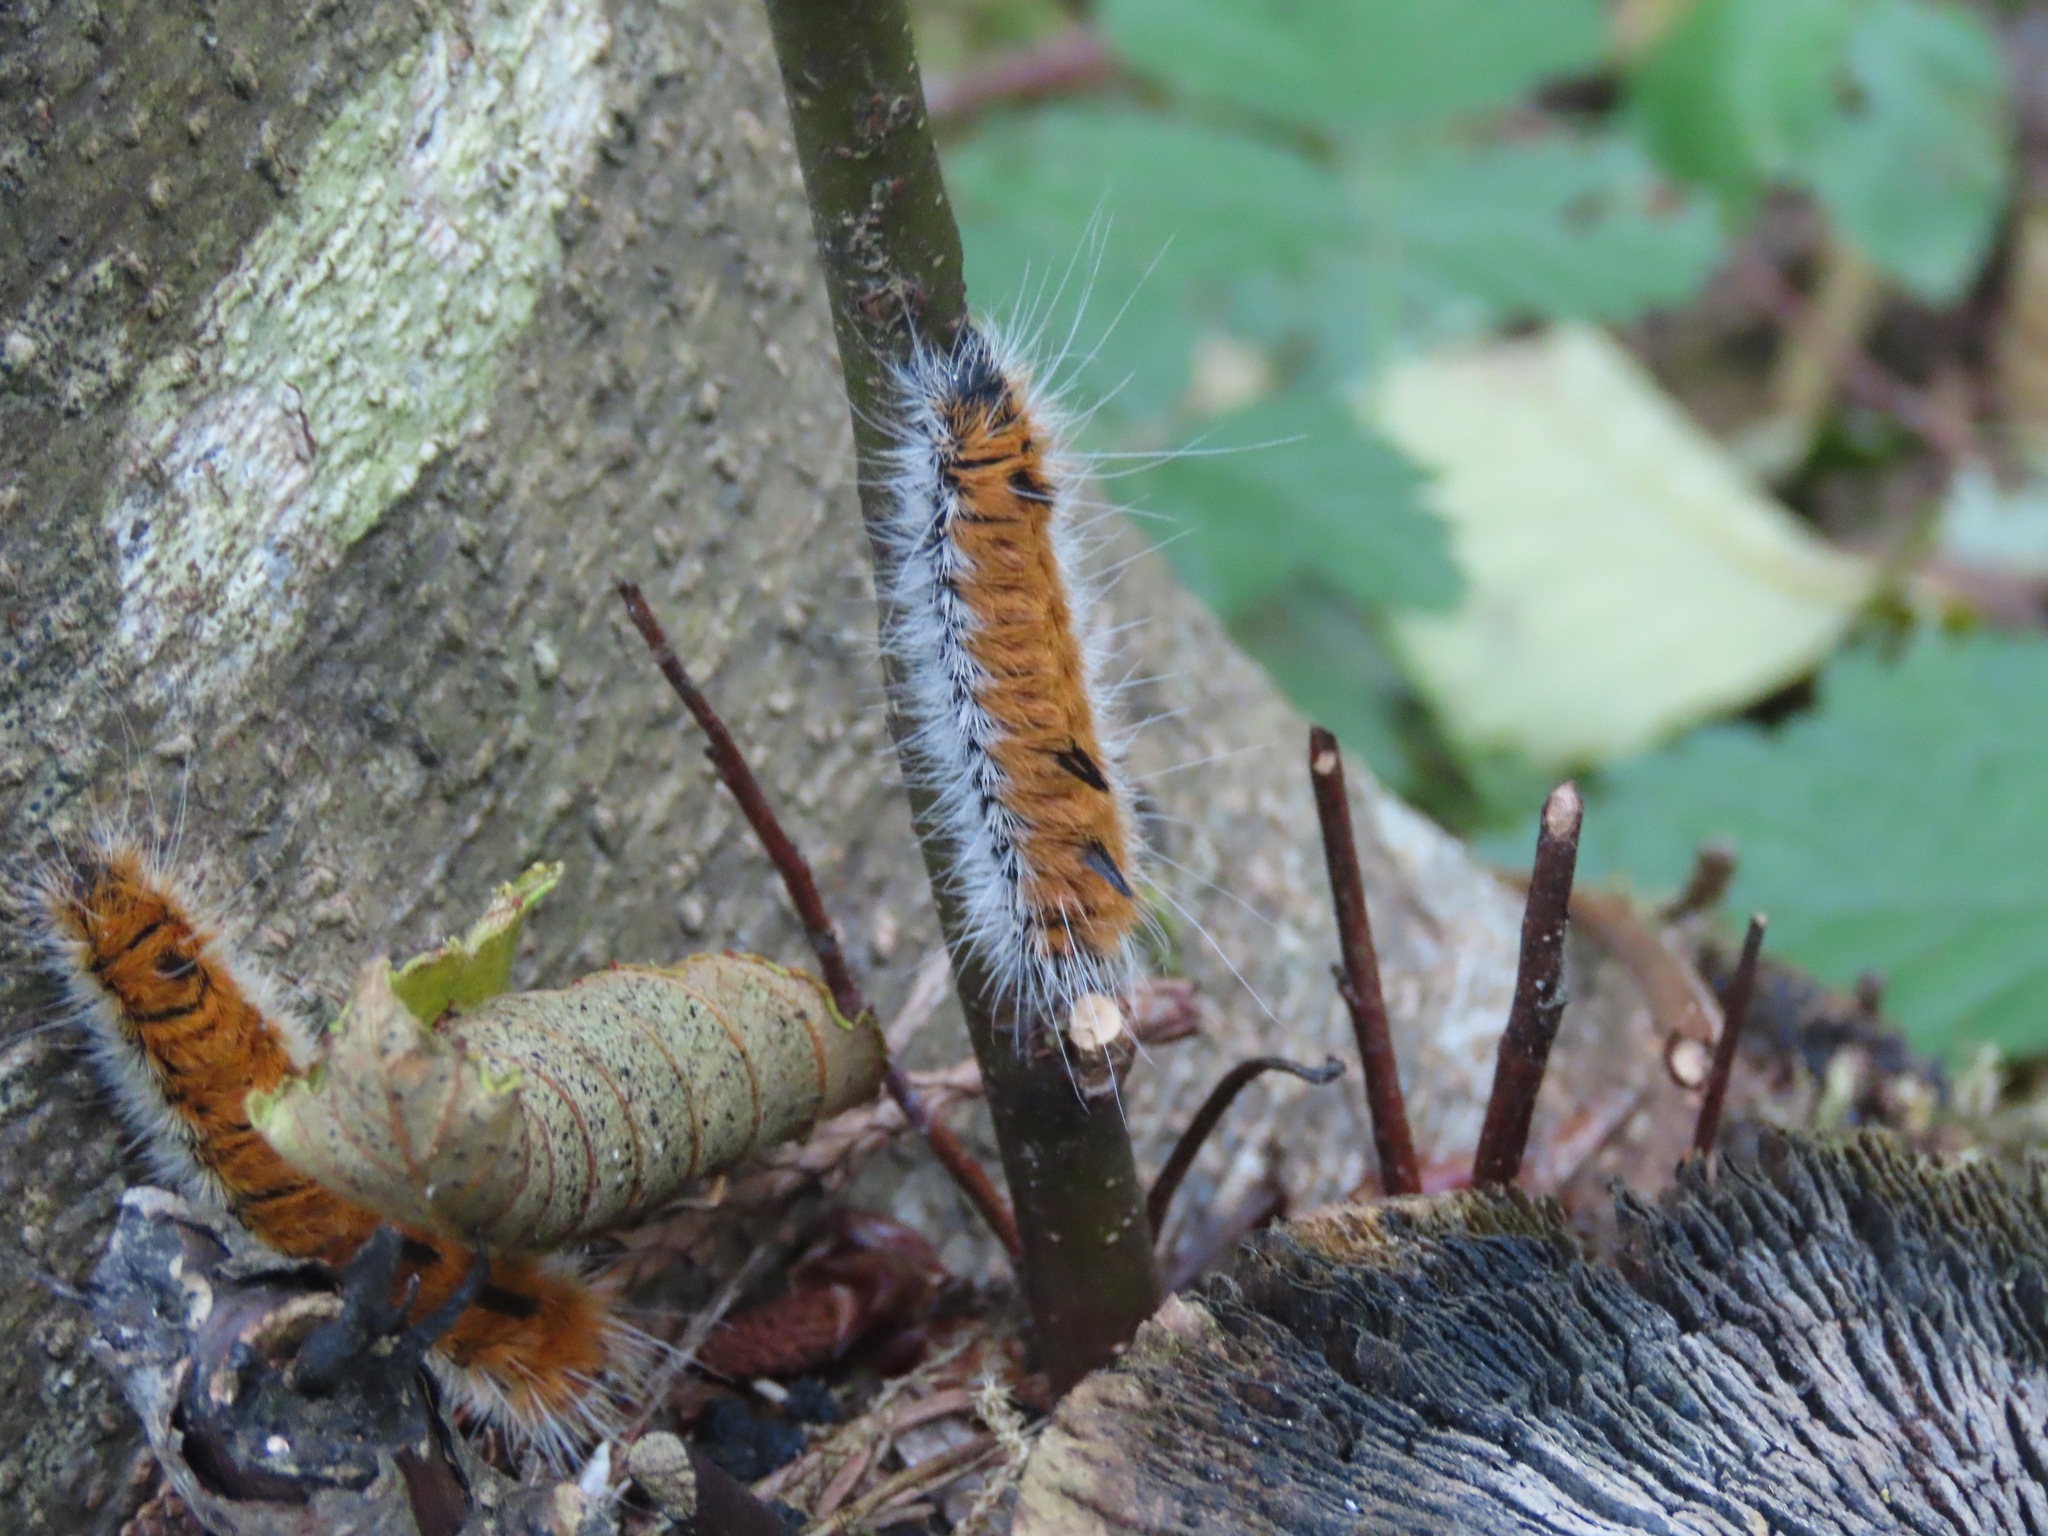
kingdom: Animalia
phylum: Arthropoda
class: Insecta
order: Lepidoptera
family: Noctuidae
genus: Acronicta
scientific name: Acronicta insita
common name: Large gray dagger
